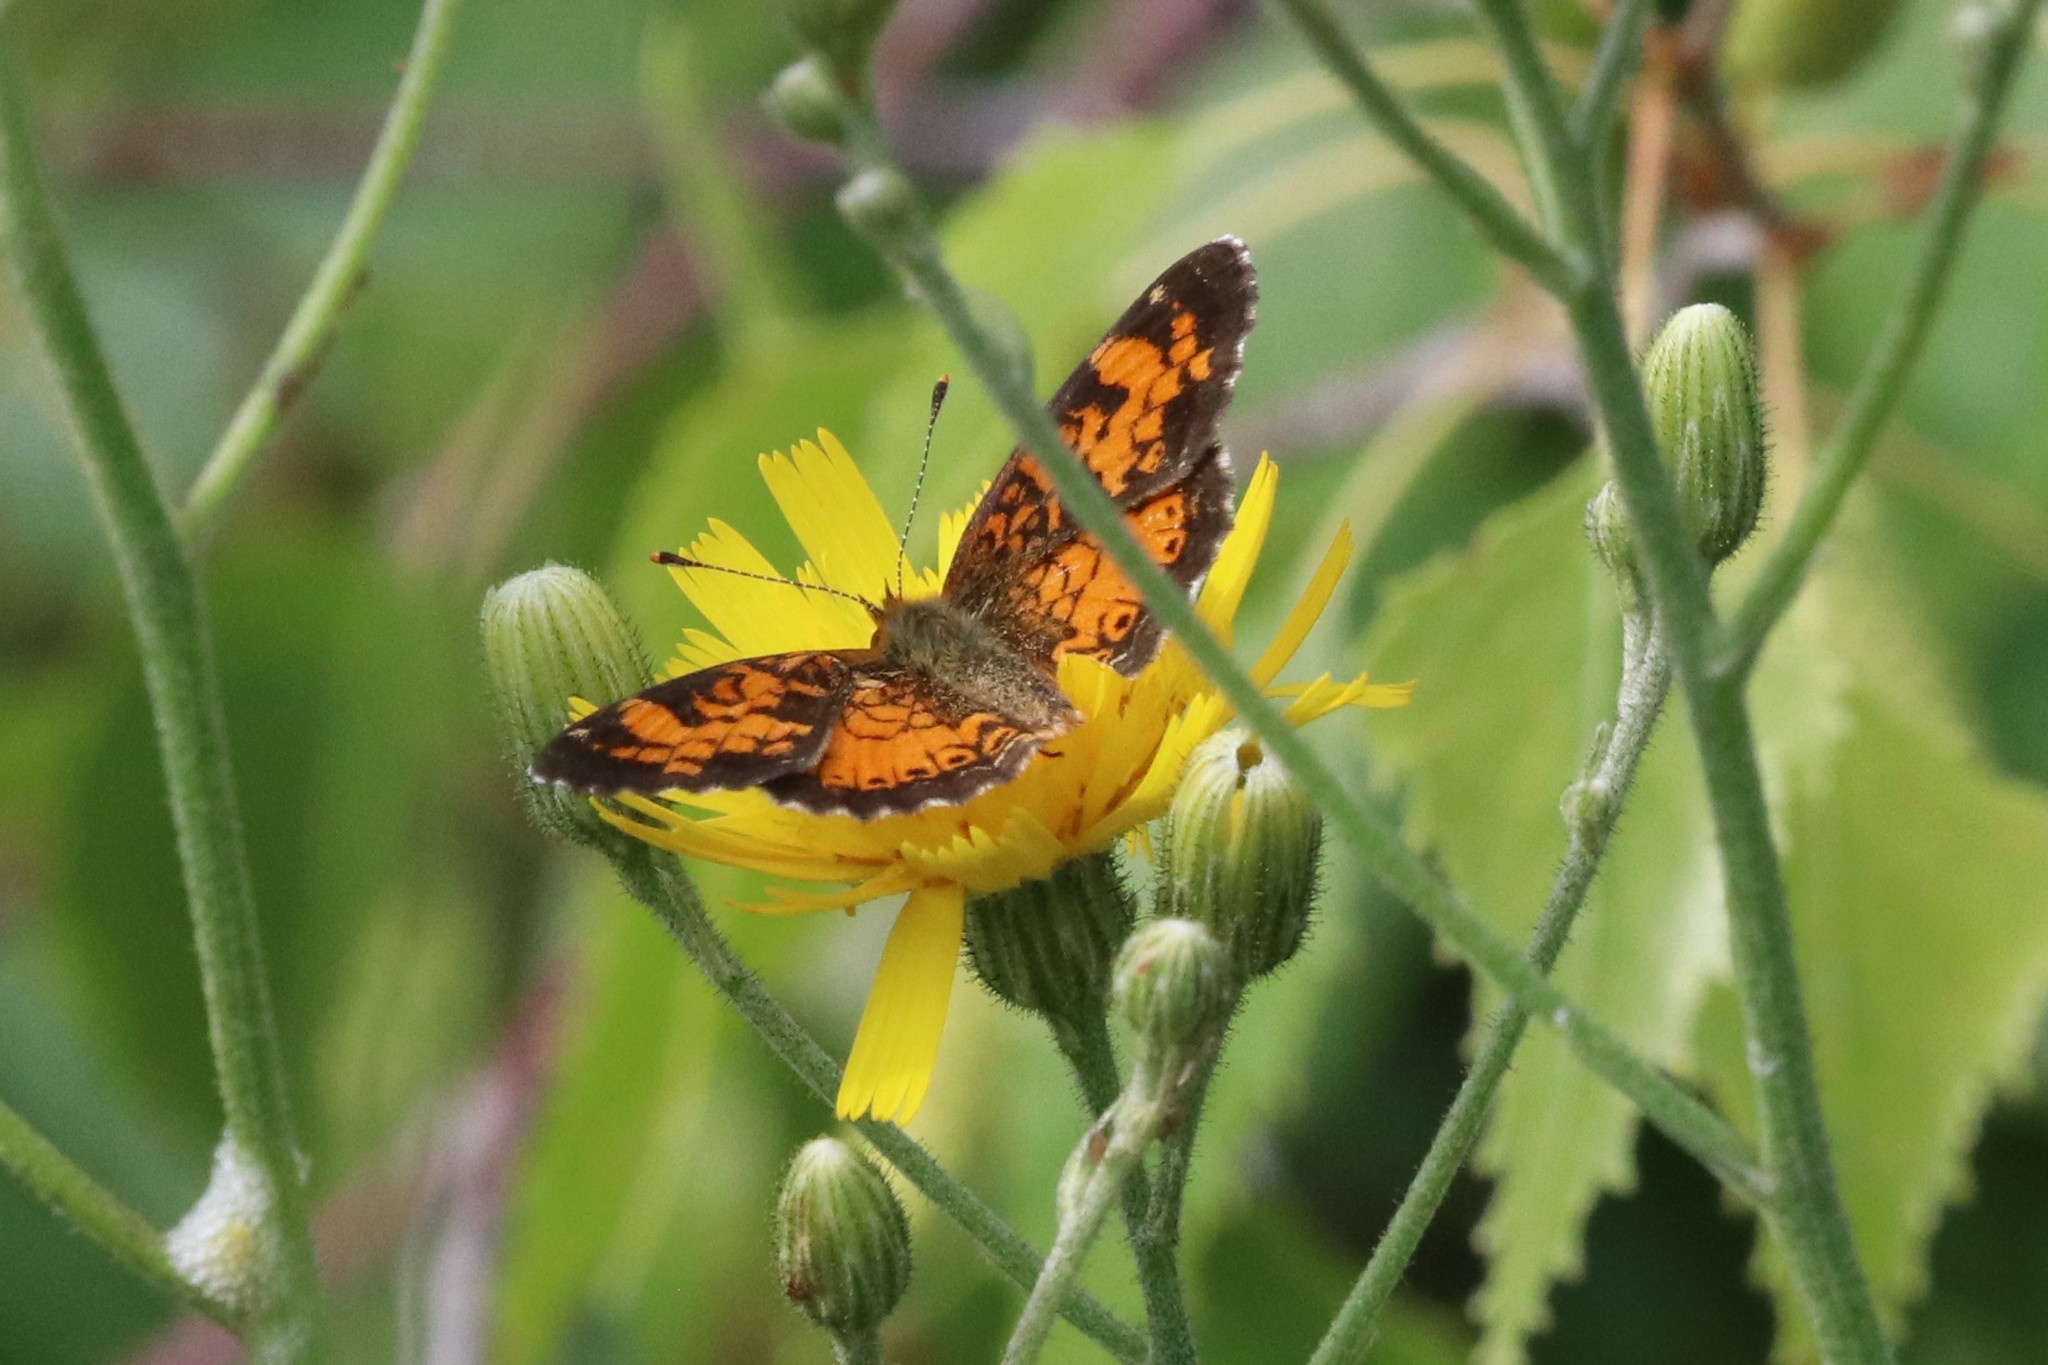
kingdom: Animalia
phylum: Arthropoda
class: Insecta
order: Lepidoptera
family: Nymphalidae
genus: Phyciodes
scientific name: Phyciodes tharos
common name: Pearl crescent
